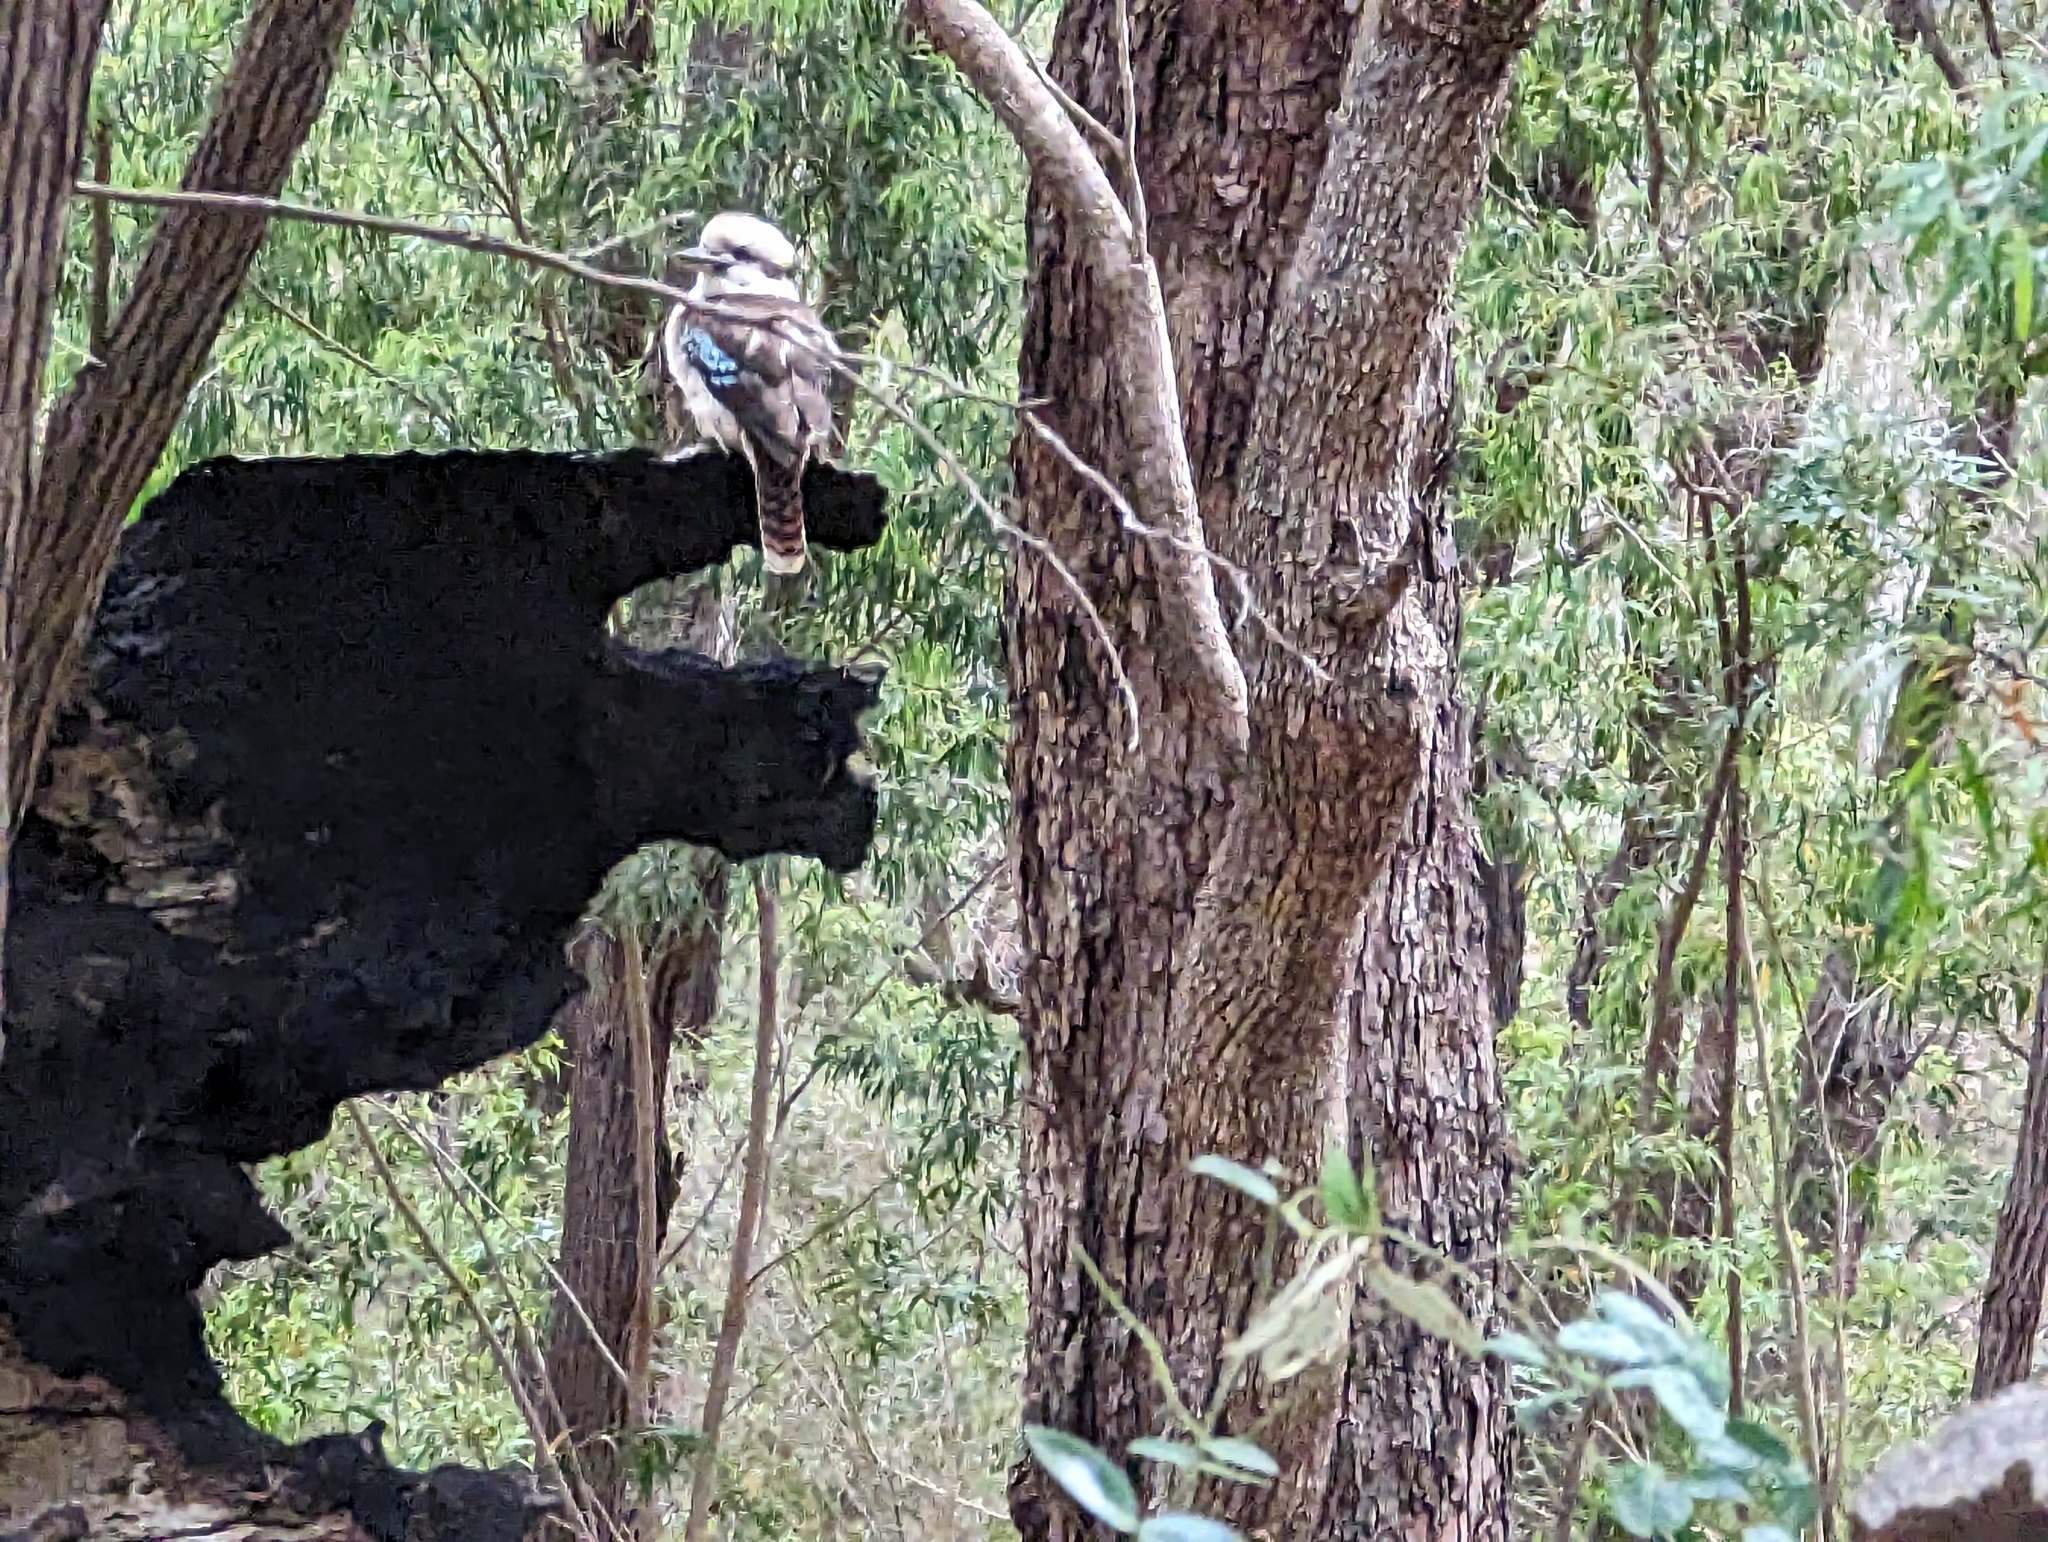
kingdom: Animalia
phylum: Chordata
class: Aves
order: Coraciiformes
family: Alcedinidae
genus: Dacelo
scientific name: Dacelo novaeguineae
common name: Laughing kookaburra
